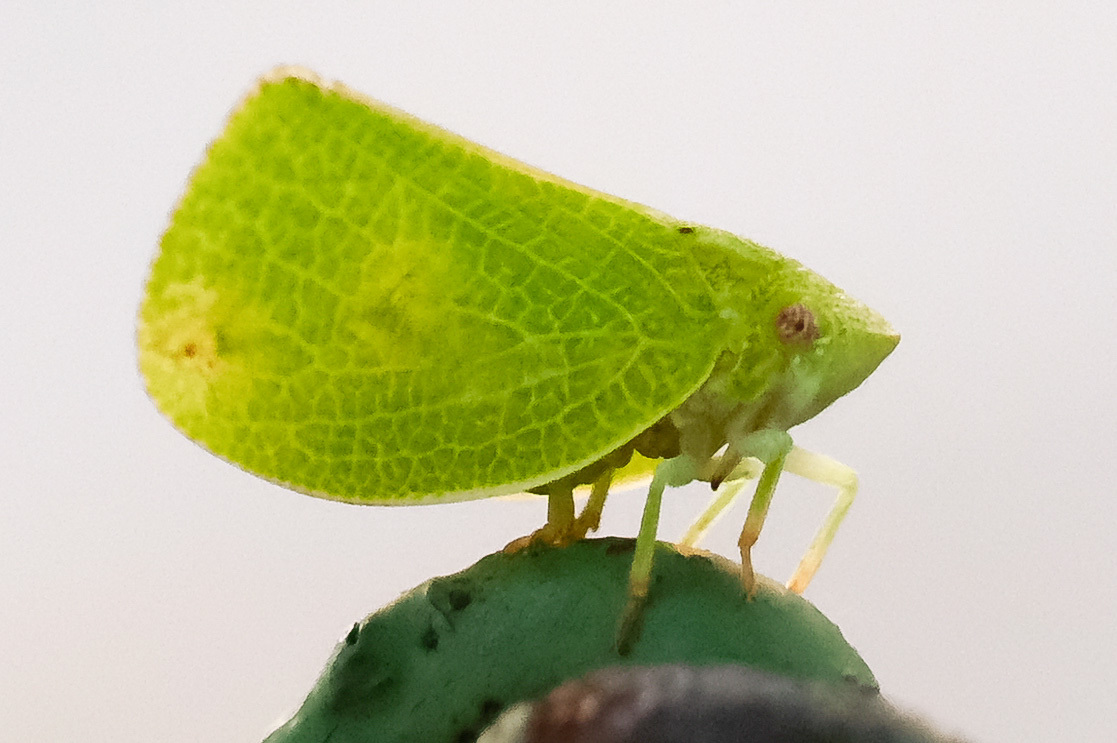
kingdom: Animalia
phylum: Arthropoda
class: Insecta
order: Hemiptera
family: Acanaloniidae
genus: Acanalonia
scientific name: Acanalonia conica
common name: Green cone-headed planthopper
